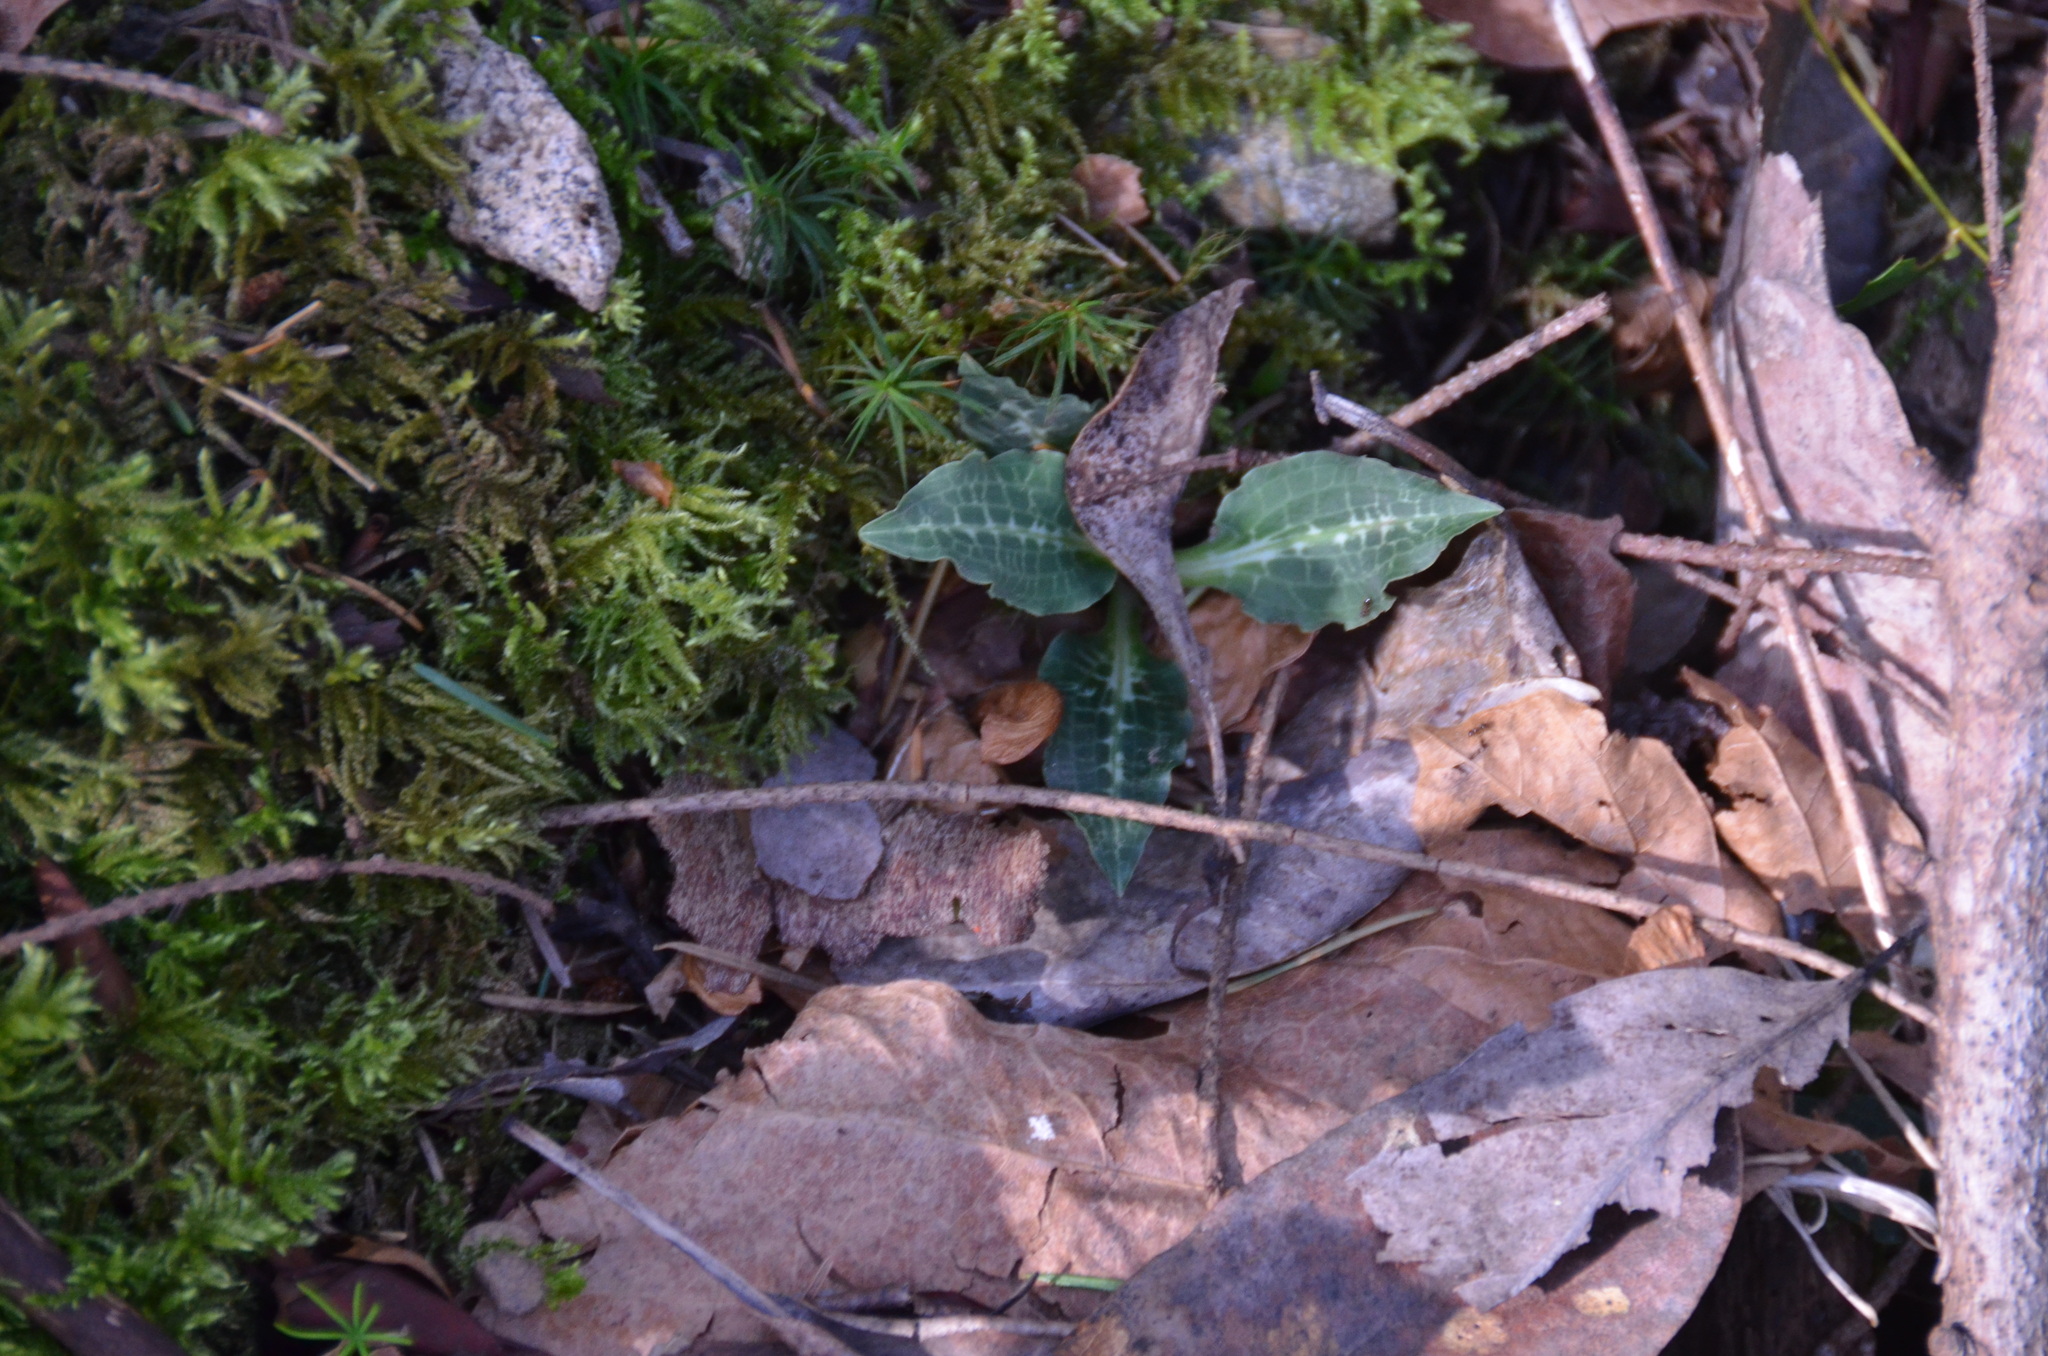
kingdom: Plantae
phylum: Tracheophyta
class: Liliopsida
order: Asparagales
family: Orchidaceae
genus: Goodyera
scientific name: Goodyera oblongifolia
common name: Giant rattlesnake-plantain
